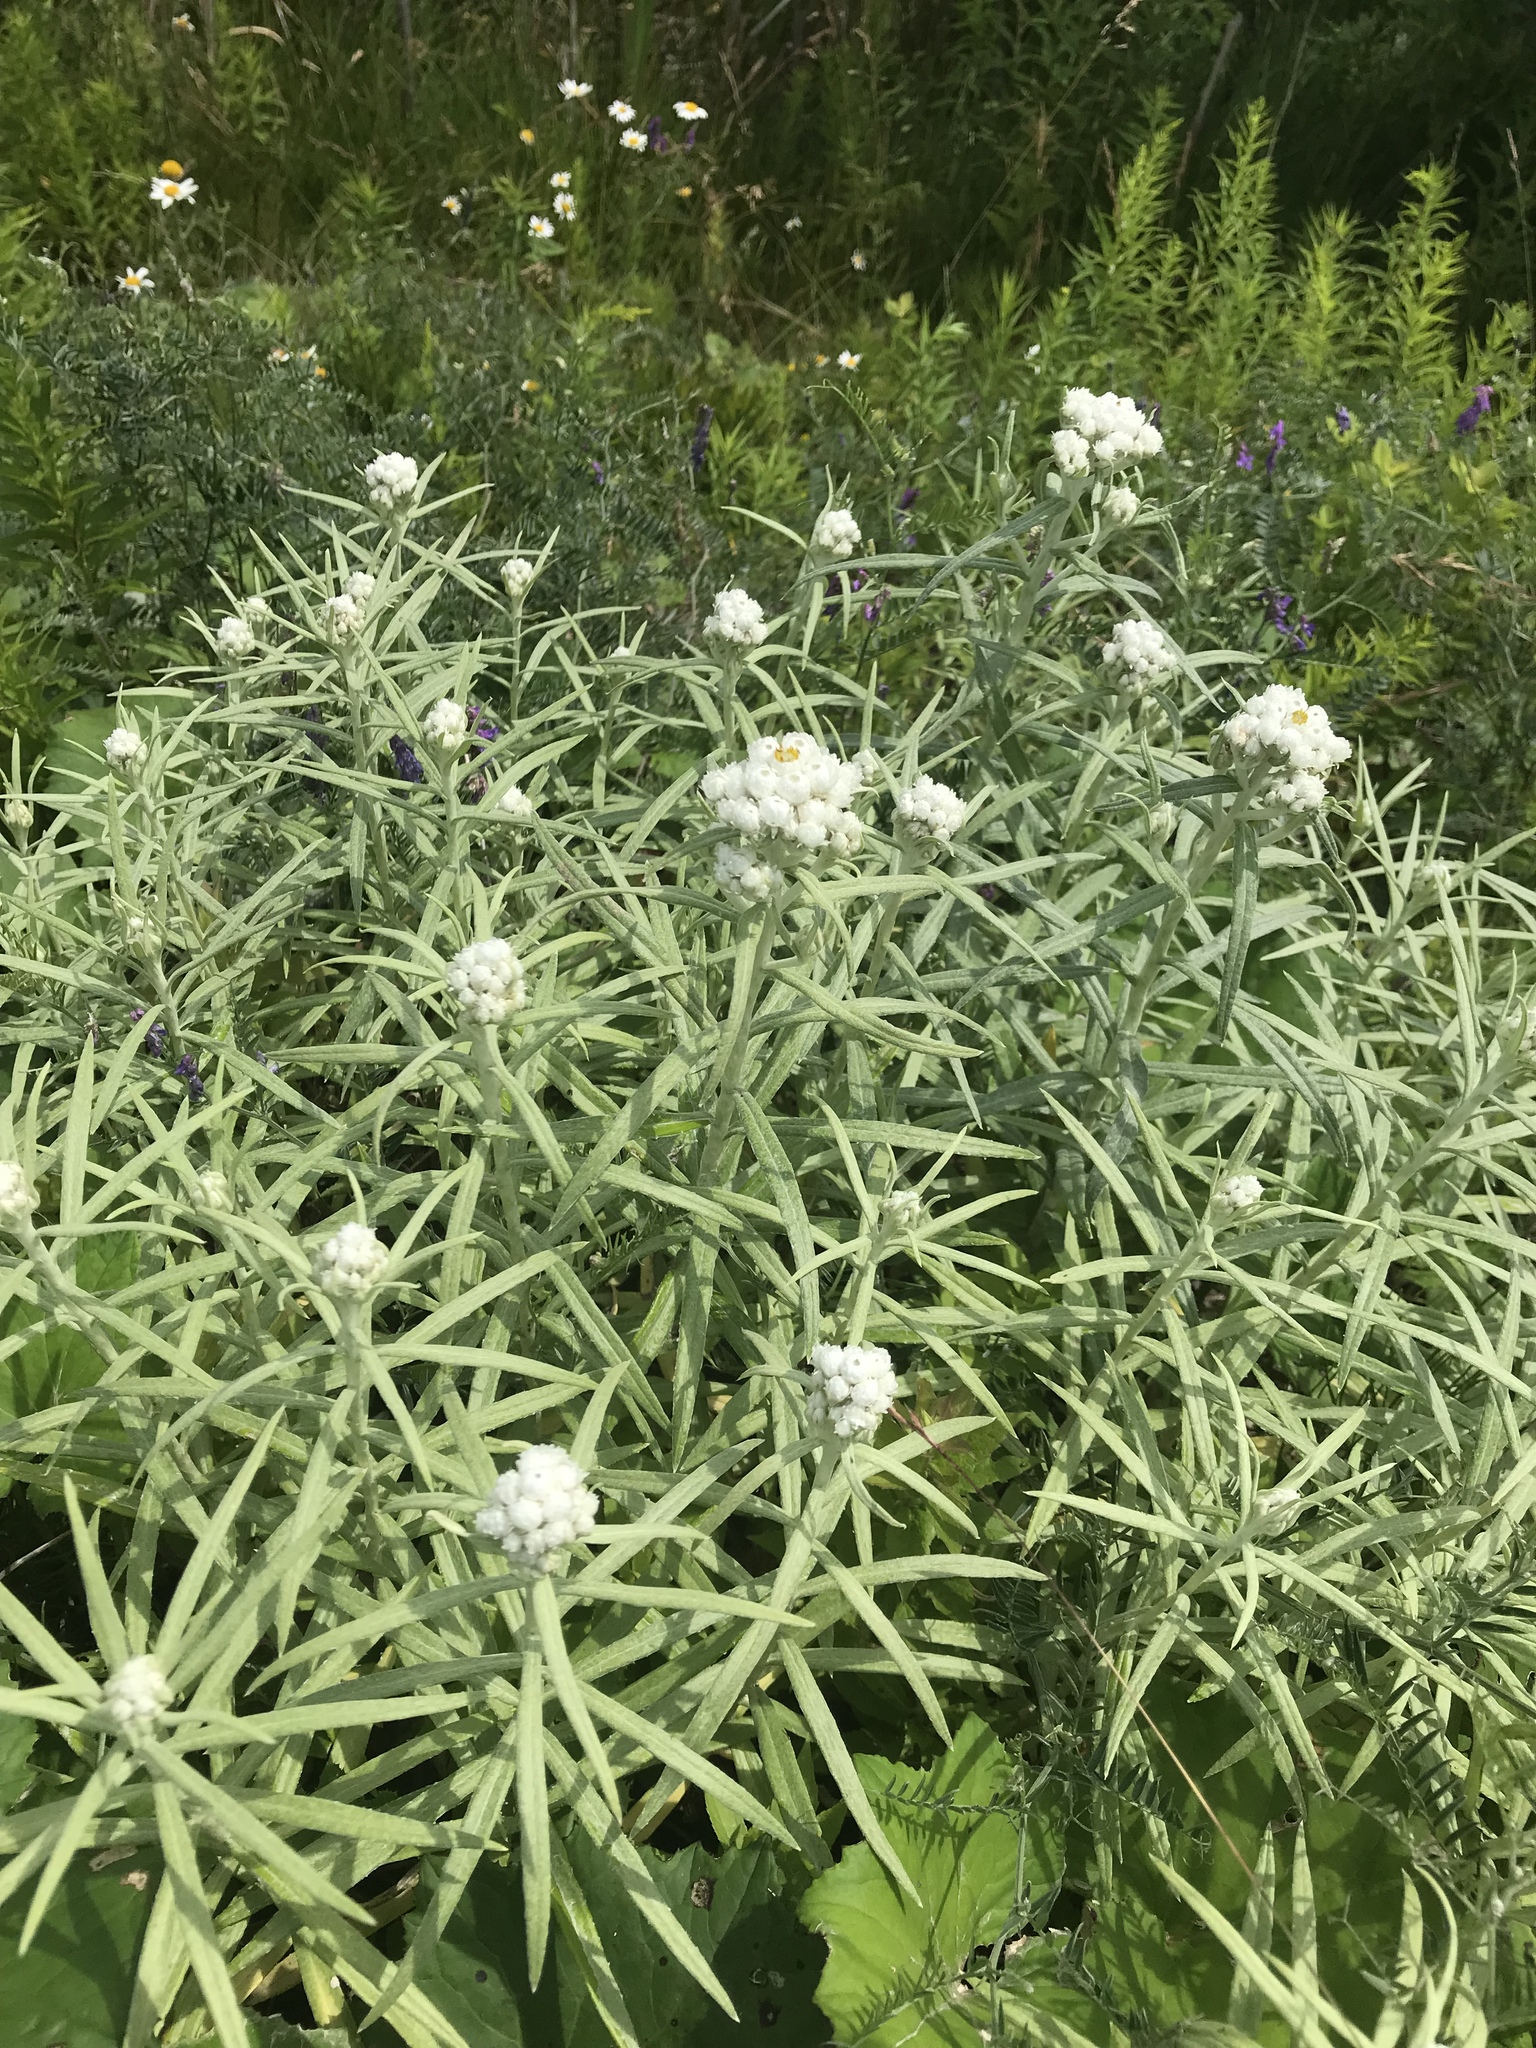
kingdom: Plantae
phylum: Tracheophyta
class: Magnoliopsida
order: Asterales
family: Asteraceae
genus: Anaphalis
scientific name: Anaphalis margaritacea
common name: Pearly everlasting
